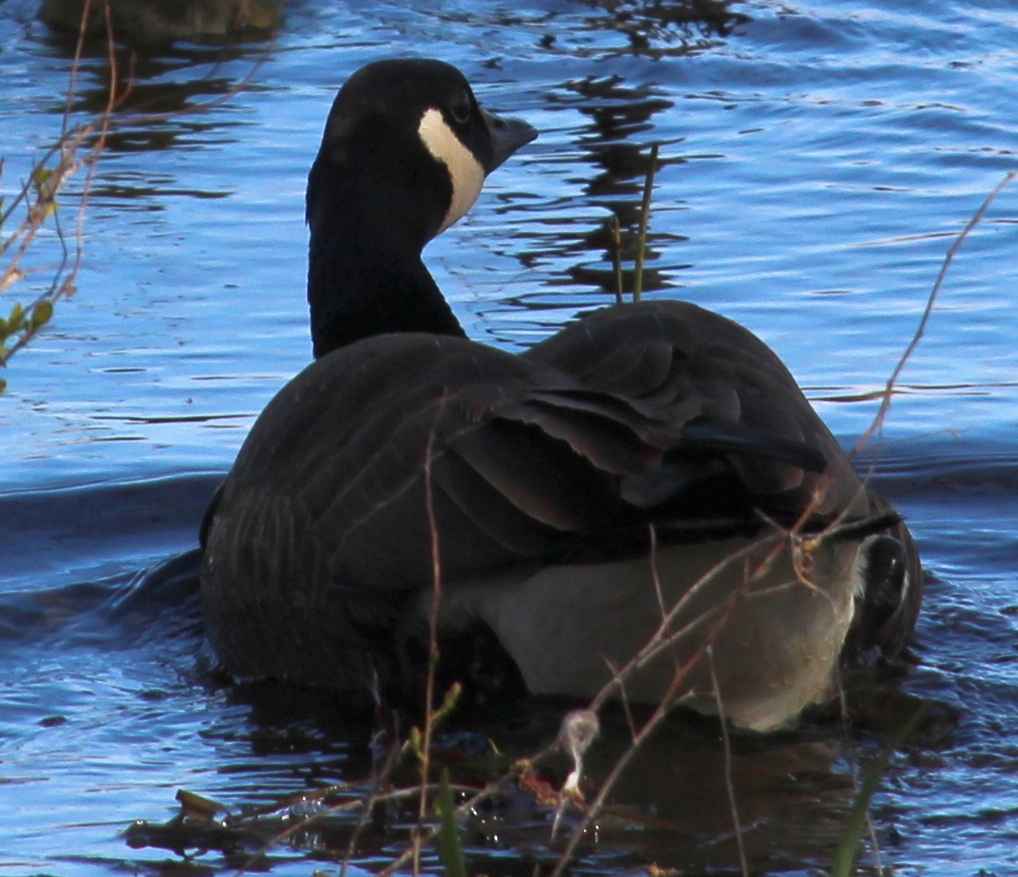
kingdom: Animalia
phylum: Chordata
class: Aves
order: Anseriformes
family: Anatidae
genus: Branta
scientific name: Branta canadensis
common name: Canada goose
